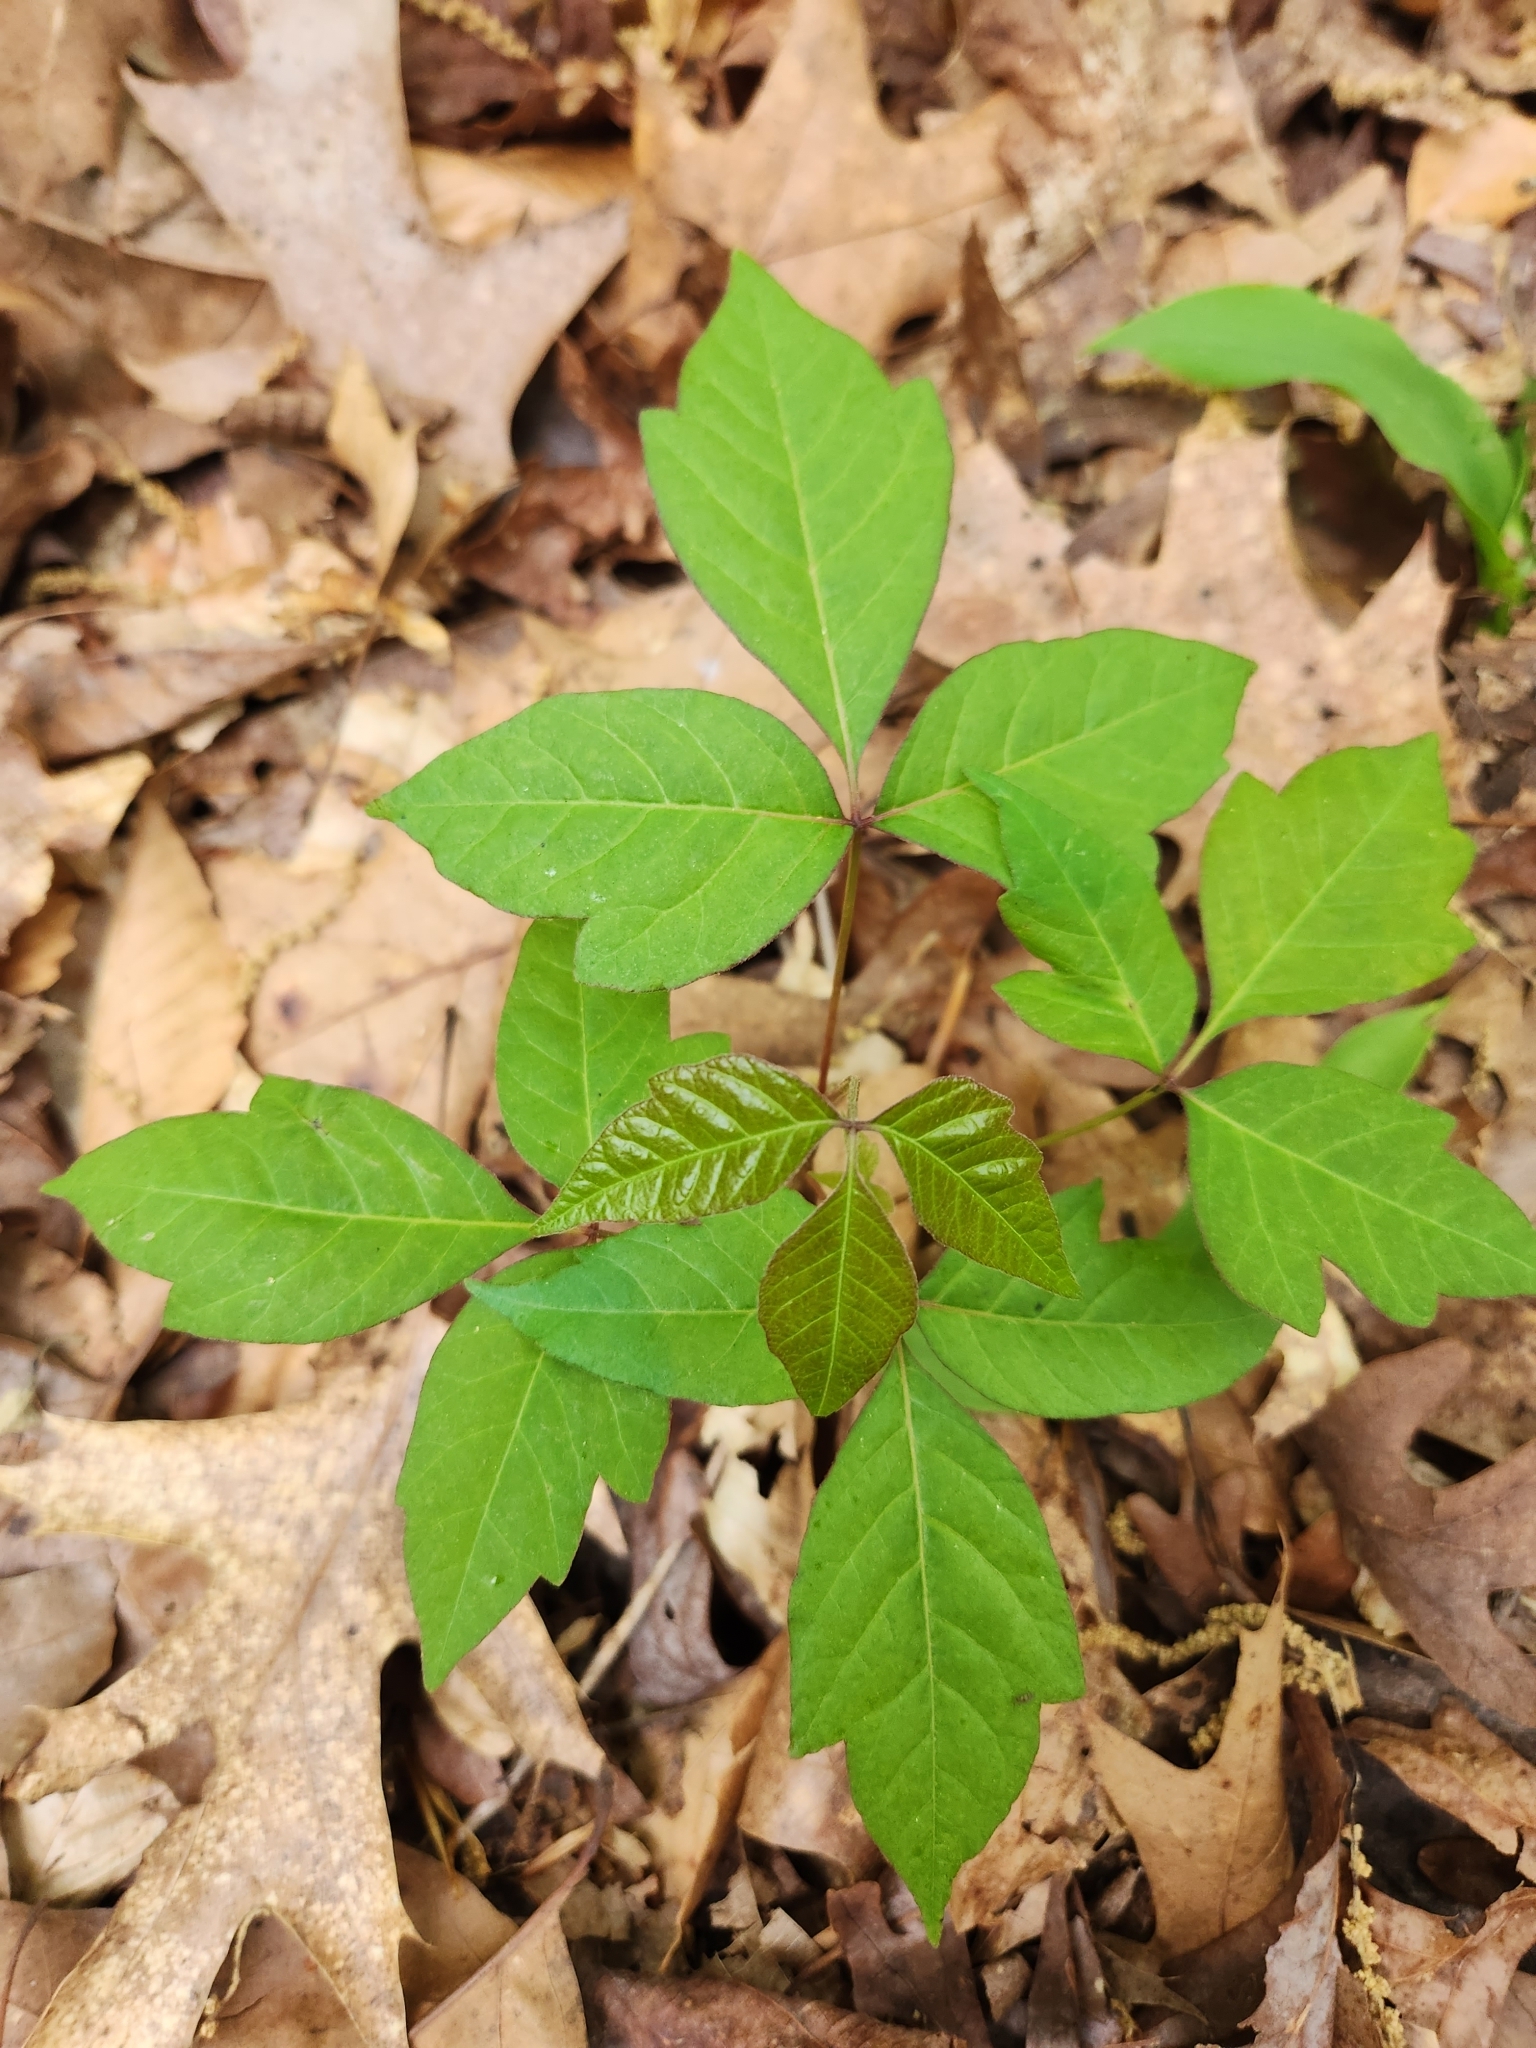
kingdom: Plantae
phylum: Tracheophyta
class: Magnoliopsida
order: Sapindales
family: Anacardiaceae
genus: Toxicodendron
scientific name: Toxicodendron radicans
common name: Poison ivy
